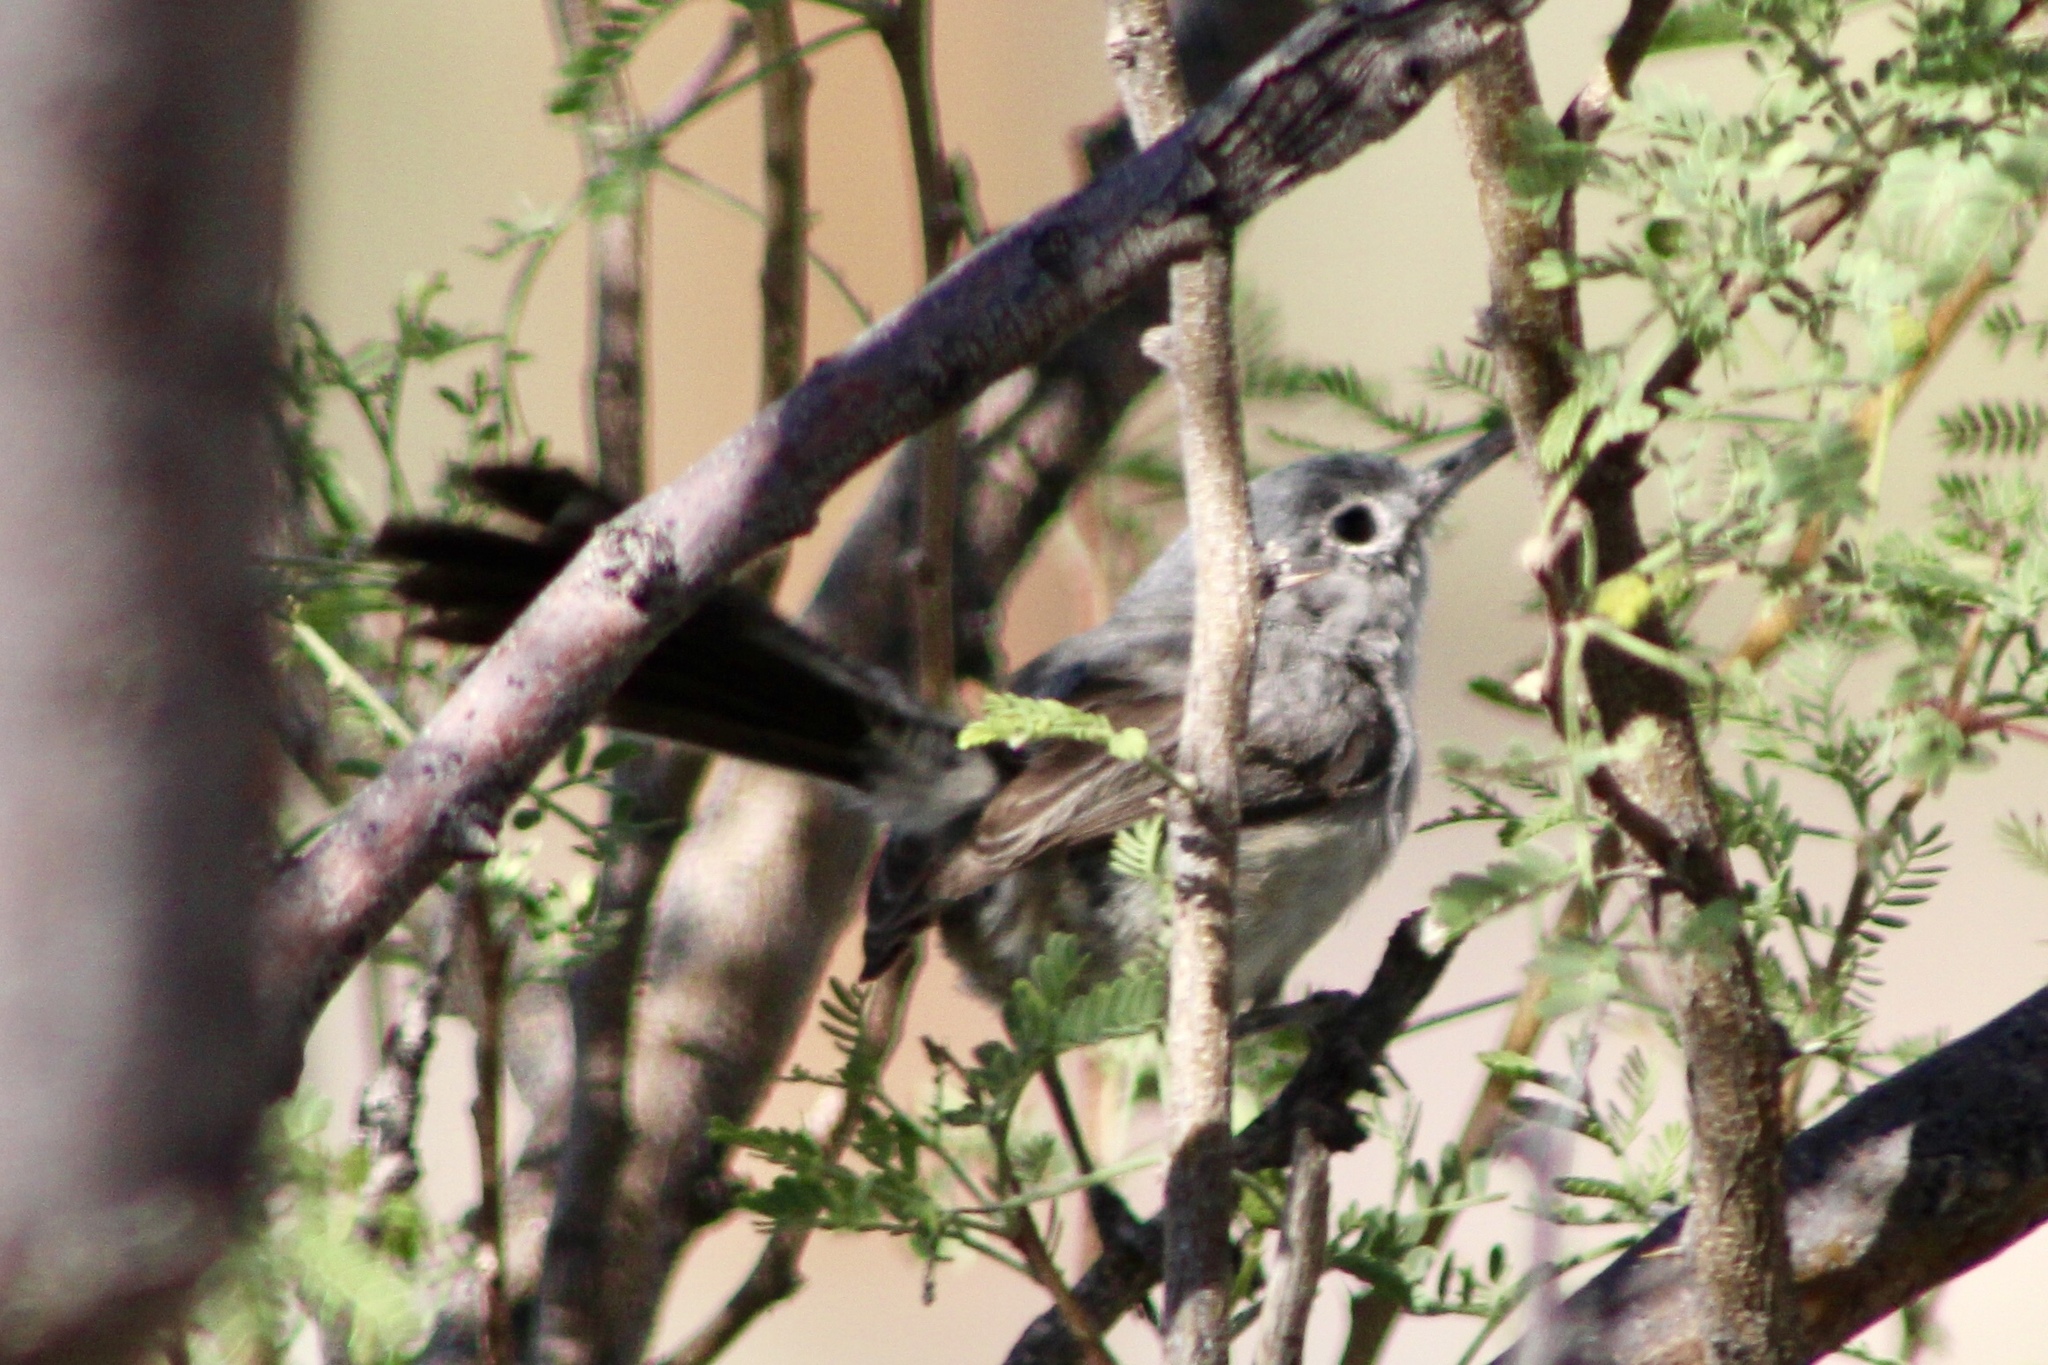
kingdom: Animalia
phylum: Chordata
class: Aves
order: Passeriformes
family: Polioptilidae
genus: Polioptila
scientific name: Polioptila melanura
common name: Black-tailed gnatcatcher
